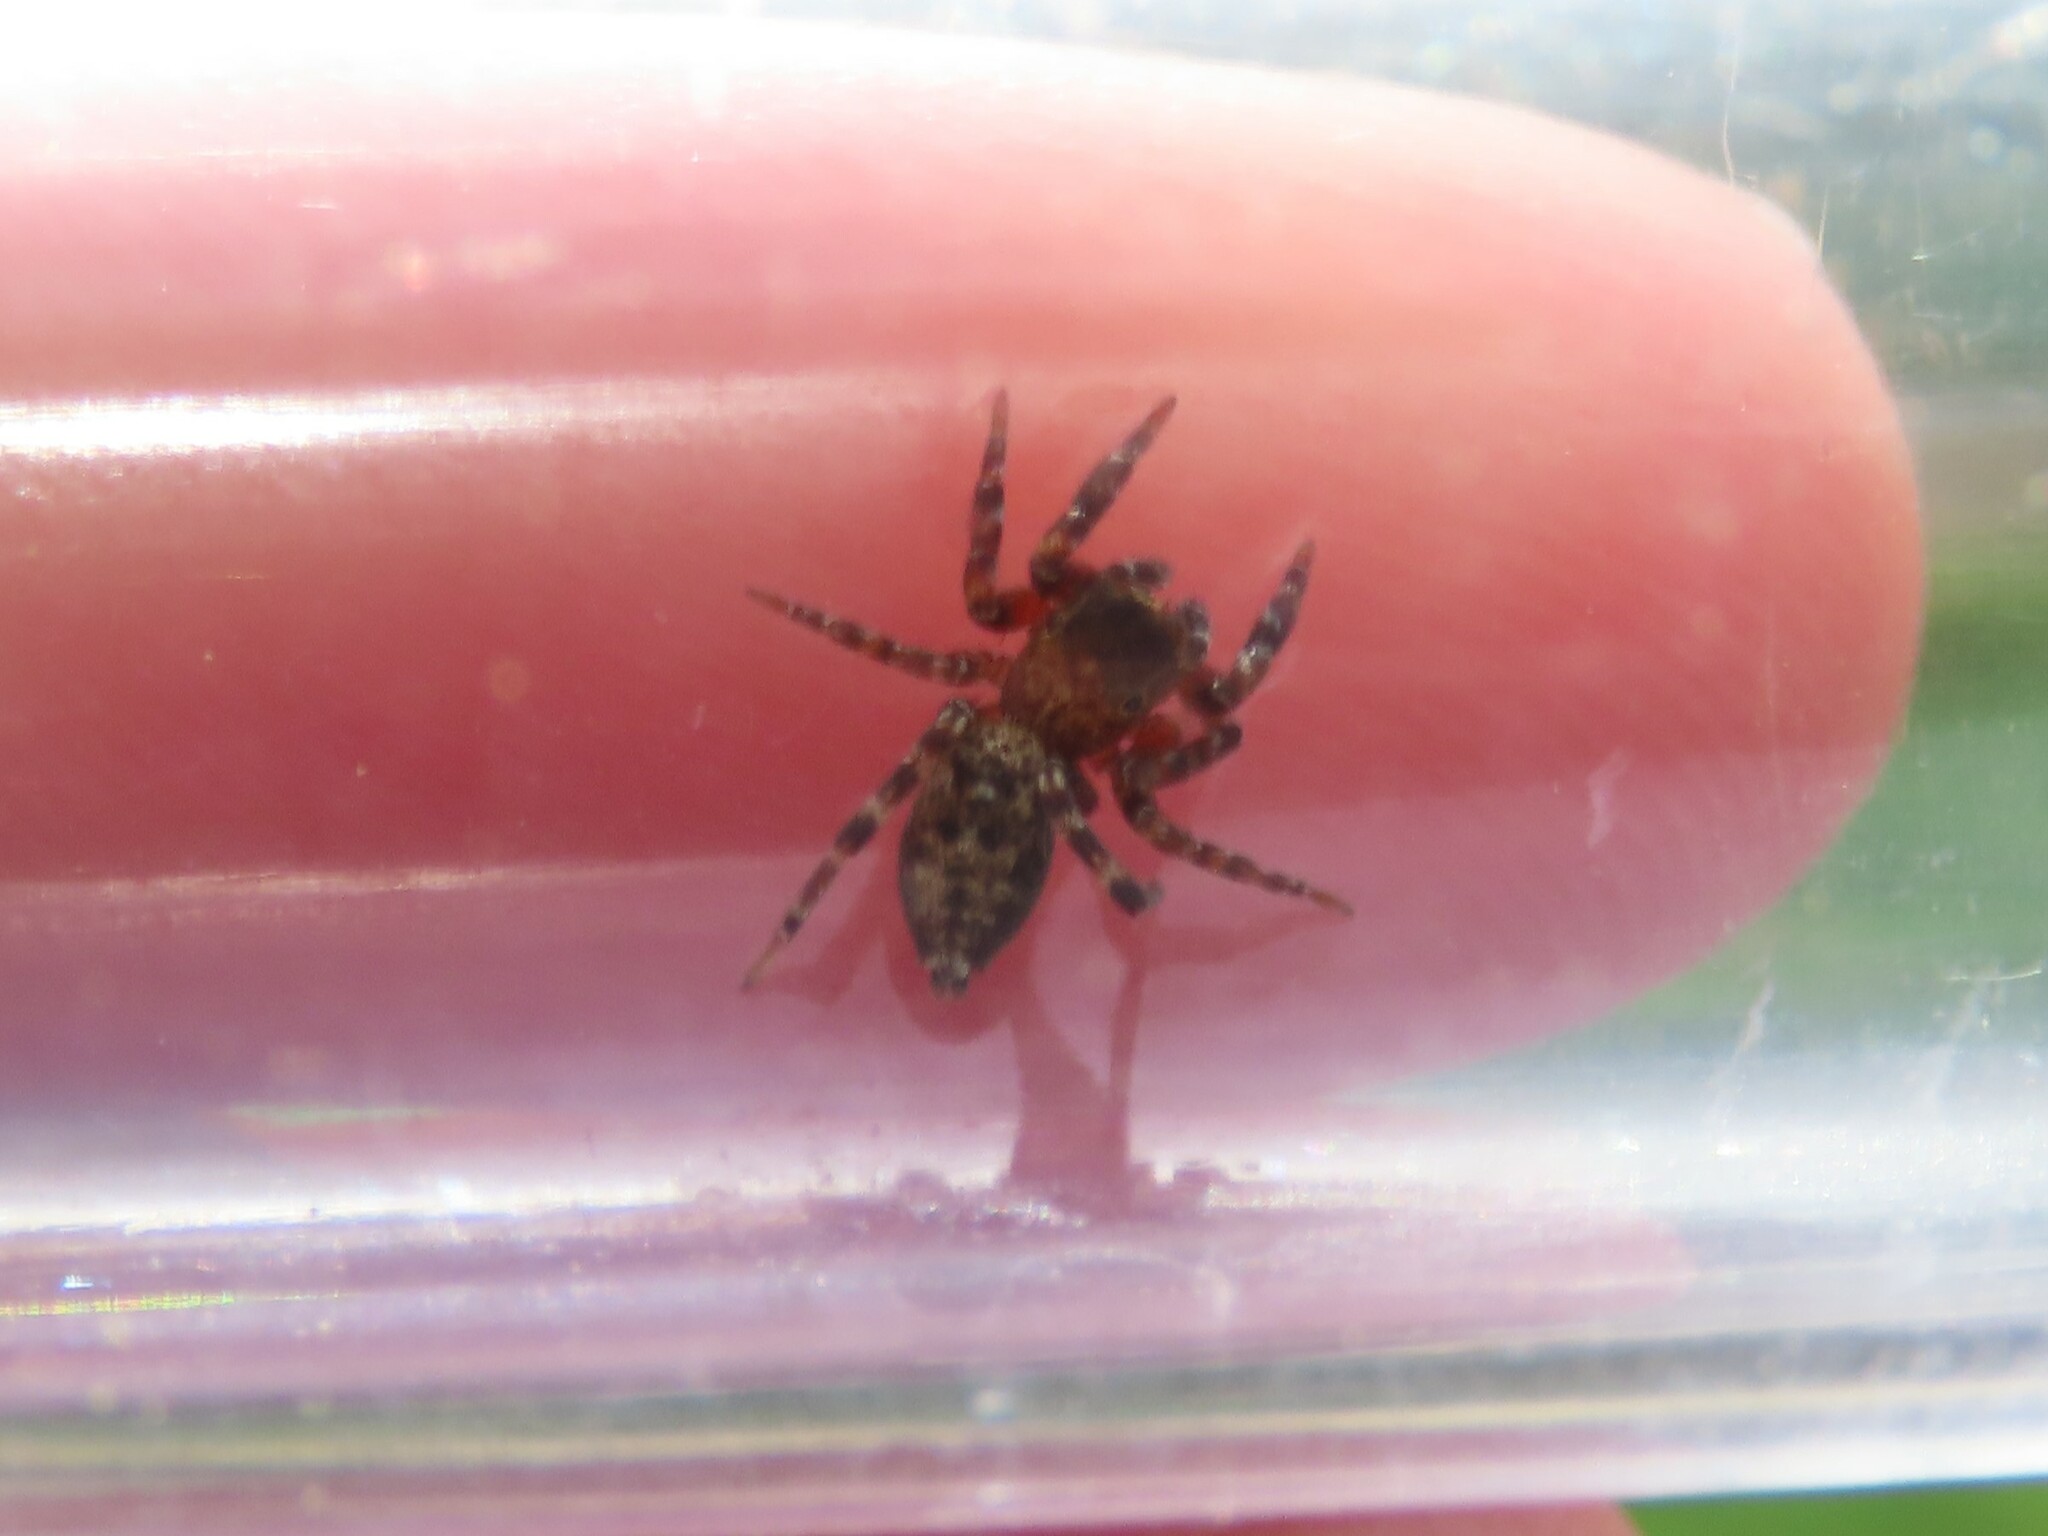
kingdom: Animalia
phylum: Arthropoda
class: Arachnida
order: Araneae
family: Salticidae
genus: Cyrba
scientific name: Cyrba algerina
